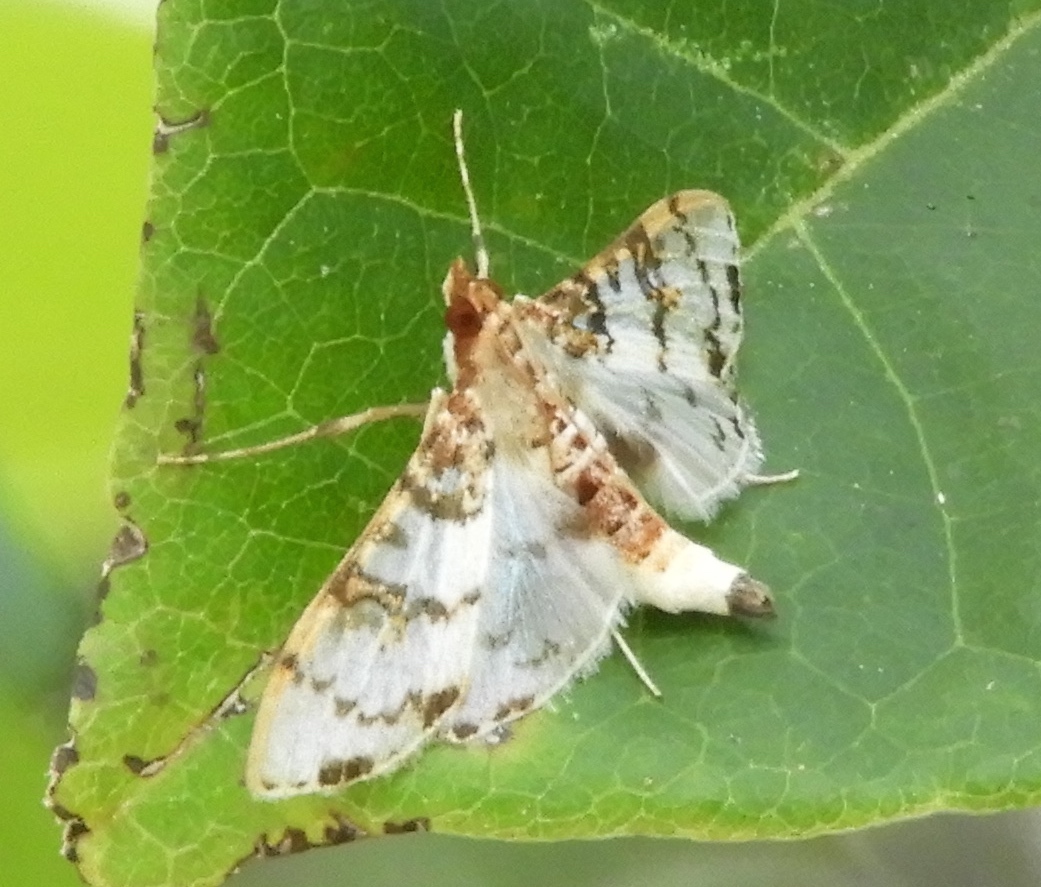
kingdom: Animalia
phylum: Arthropoda
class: Insecta
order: Lepidoptera
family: Crambidae
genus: Azochis
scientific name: Azochis
